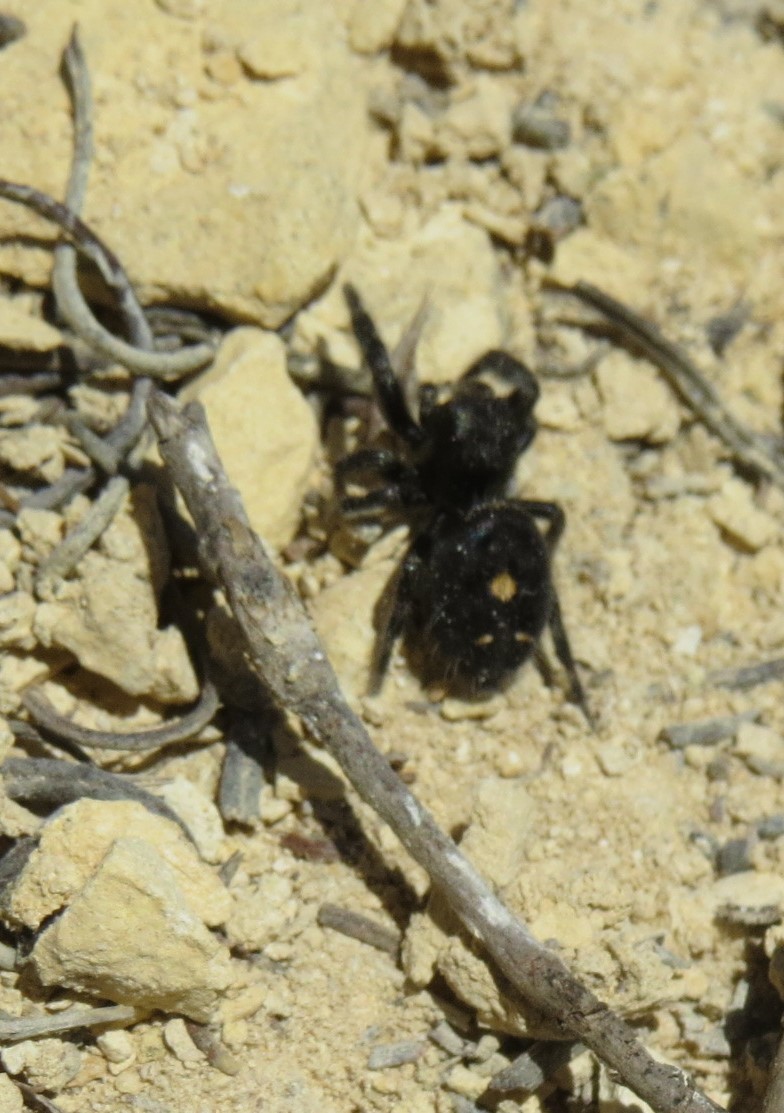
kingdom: Animalia
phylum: Arthropoda
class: Arachnida
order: Araneae
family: Salticidae
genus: Phidippus
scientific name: Phidippus audax
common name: Bold jumper
